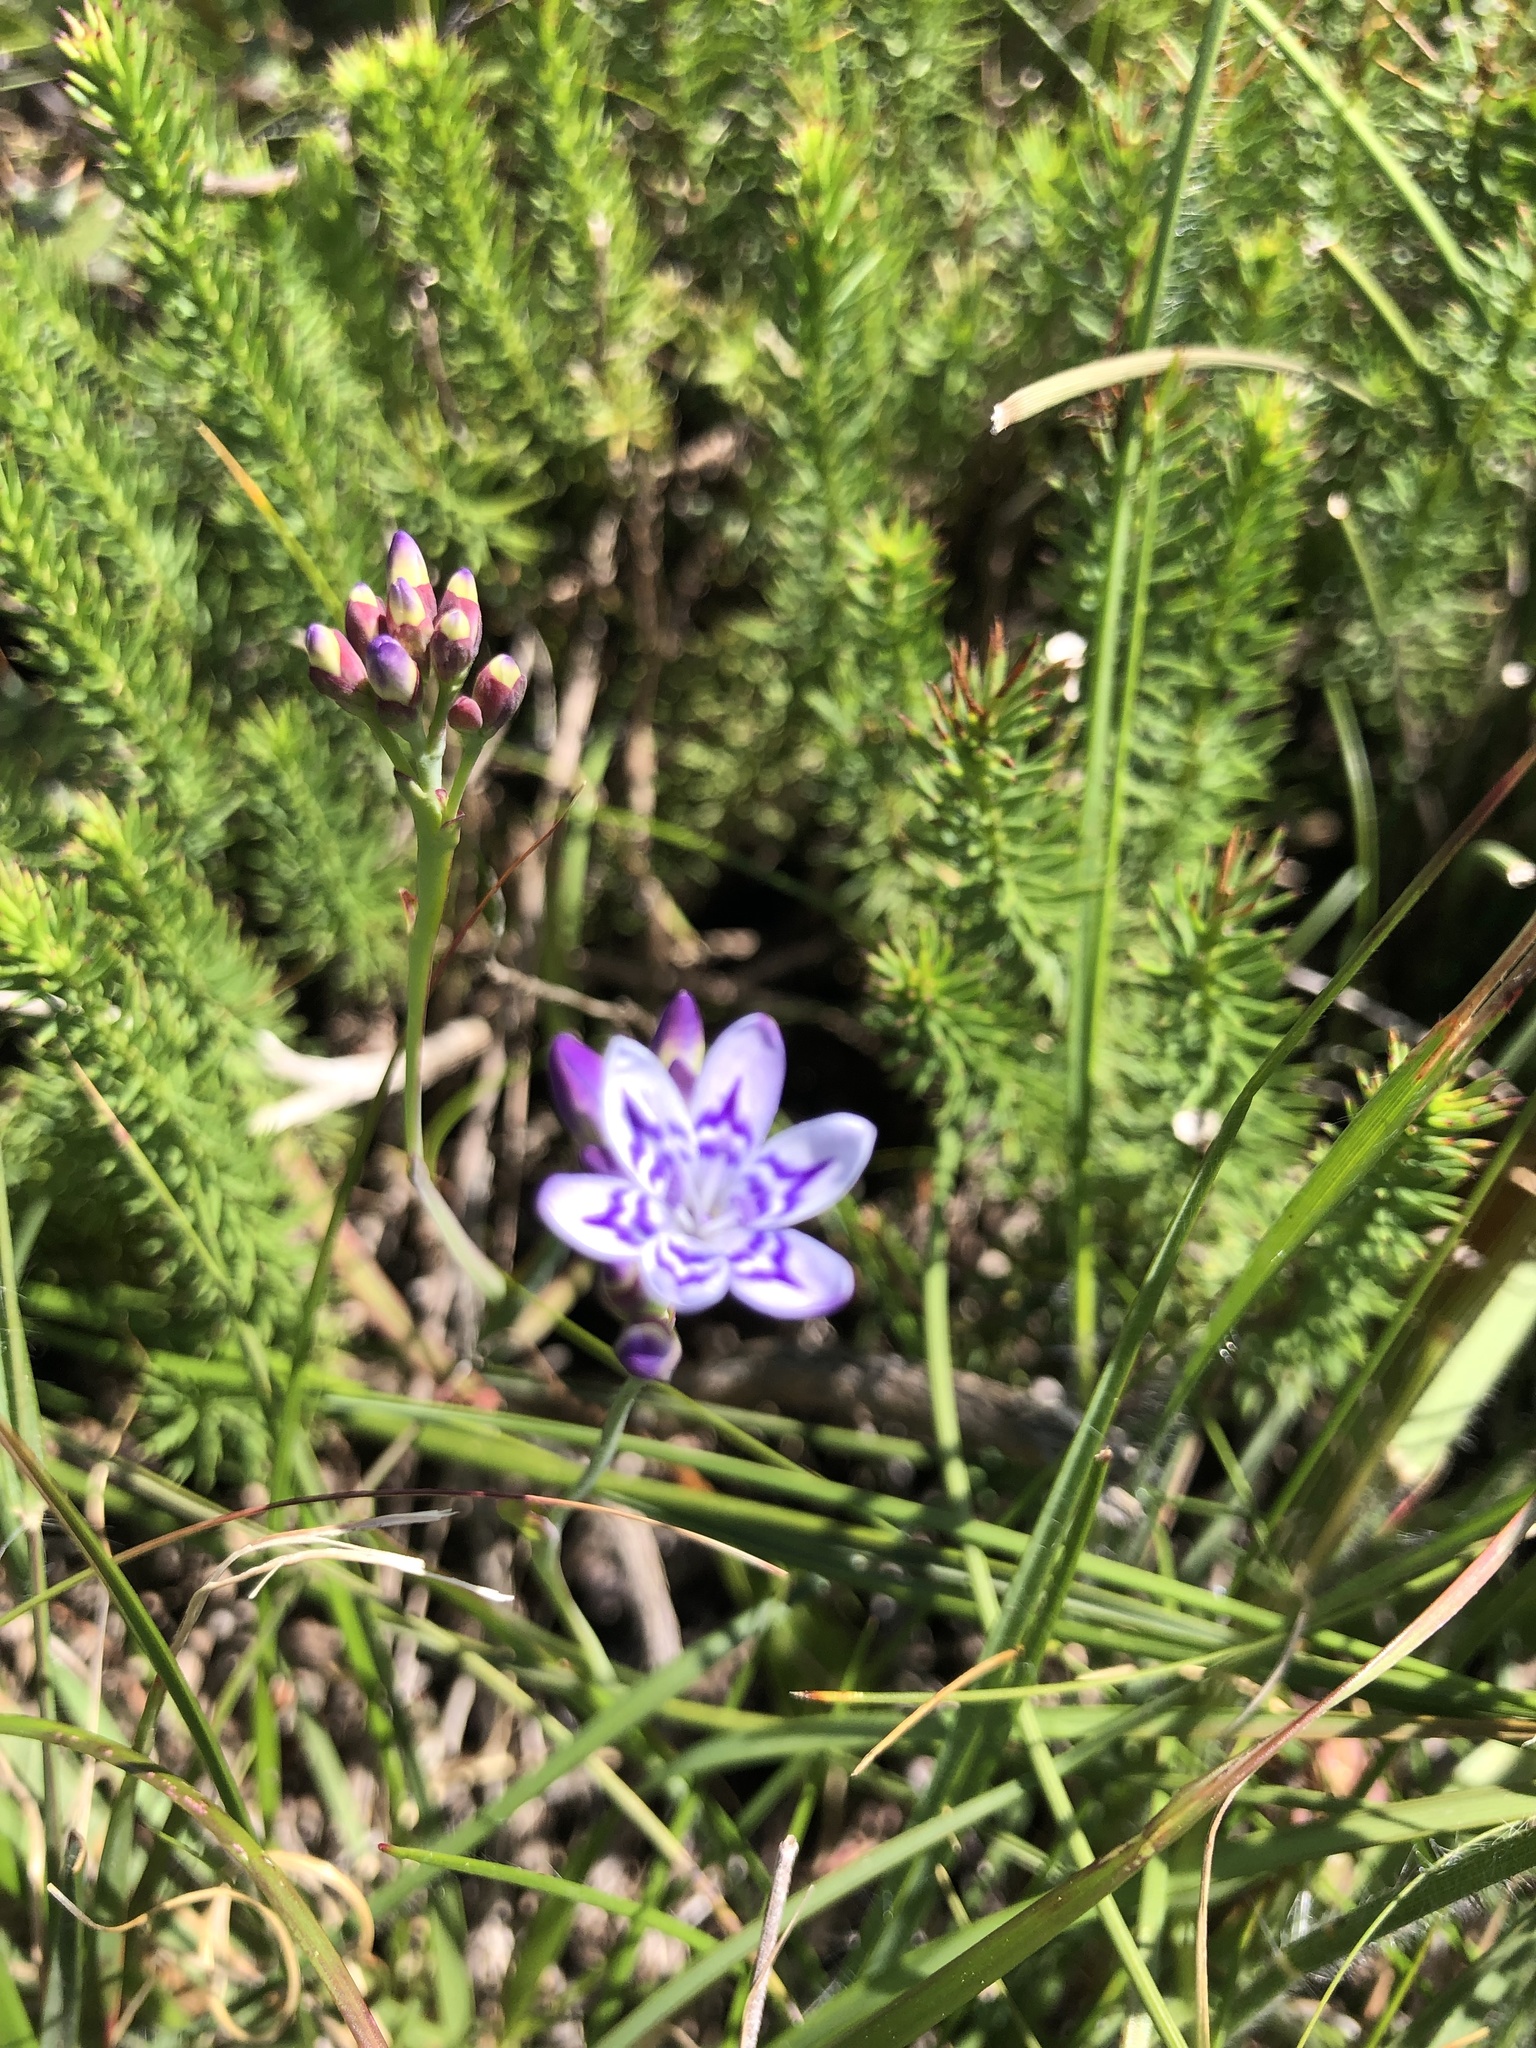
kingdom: Plantae
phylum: Tracheophyta
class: Liliopsida
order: Asparagales
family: Iridaceae
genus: Codonorhiza
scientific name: Codonorhiza corymbosa
